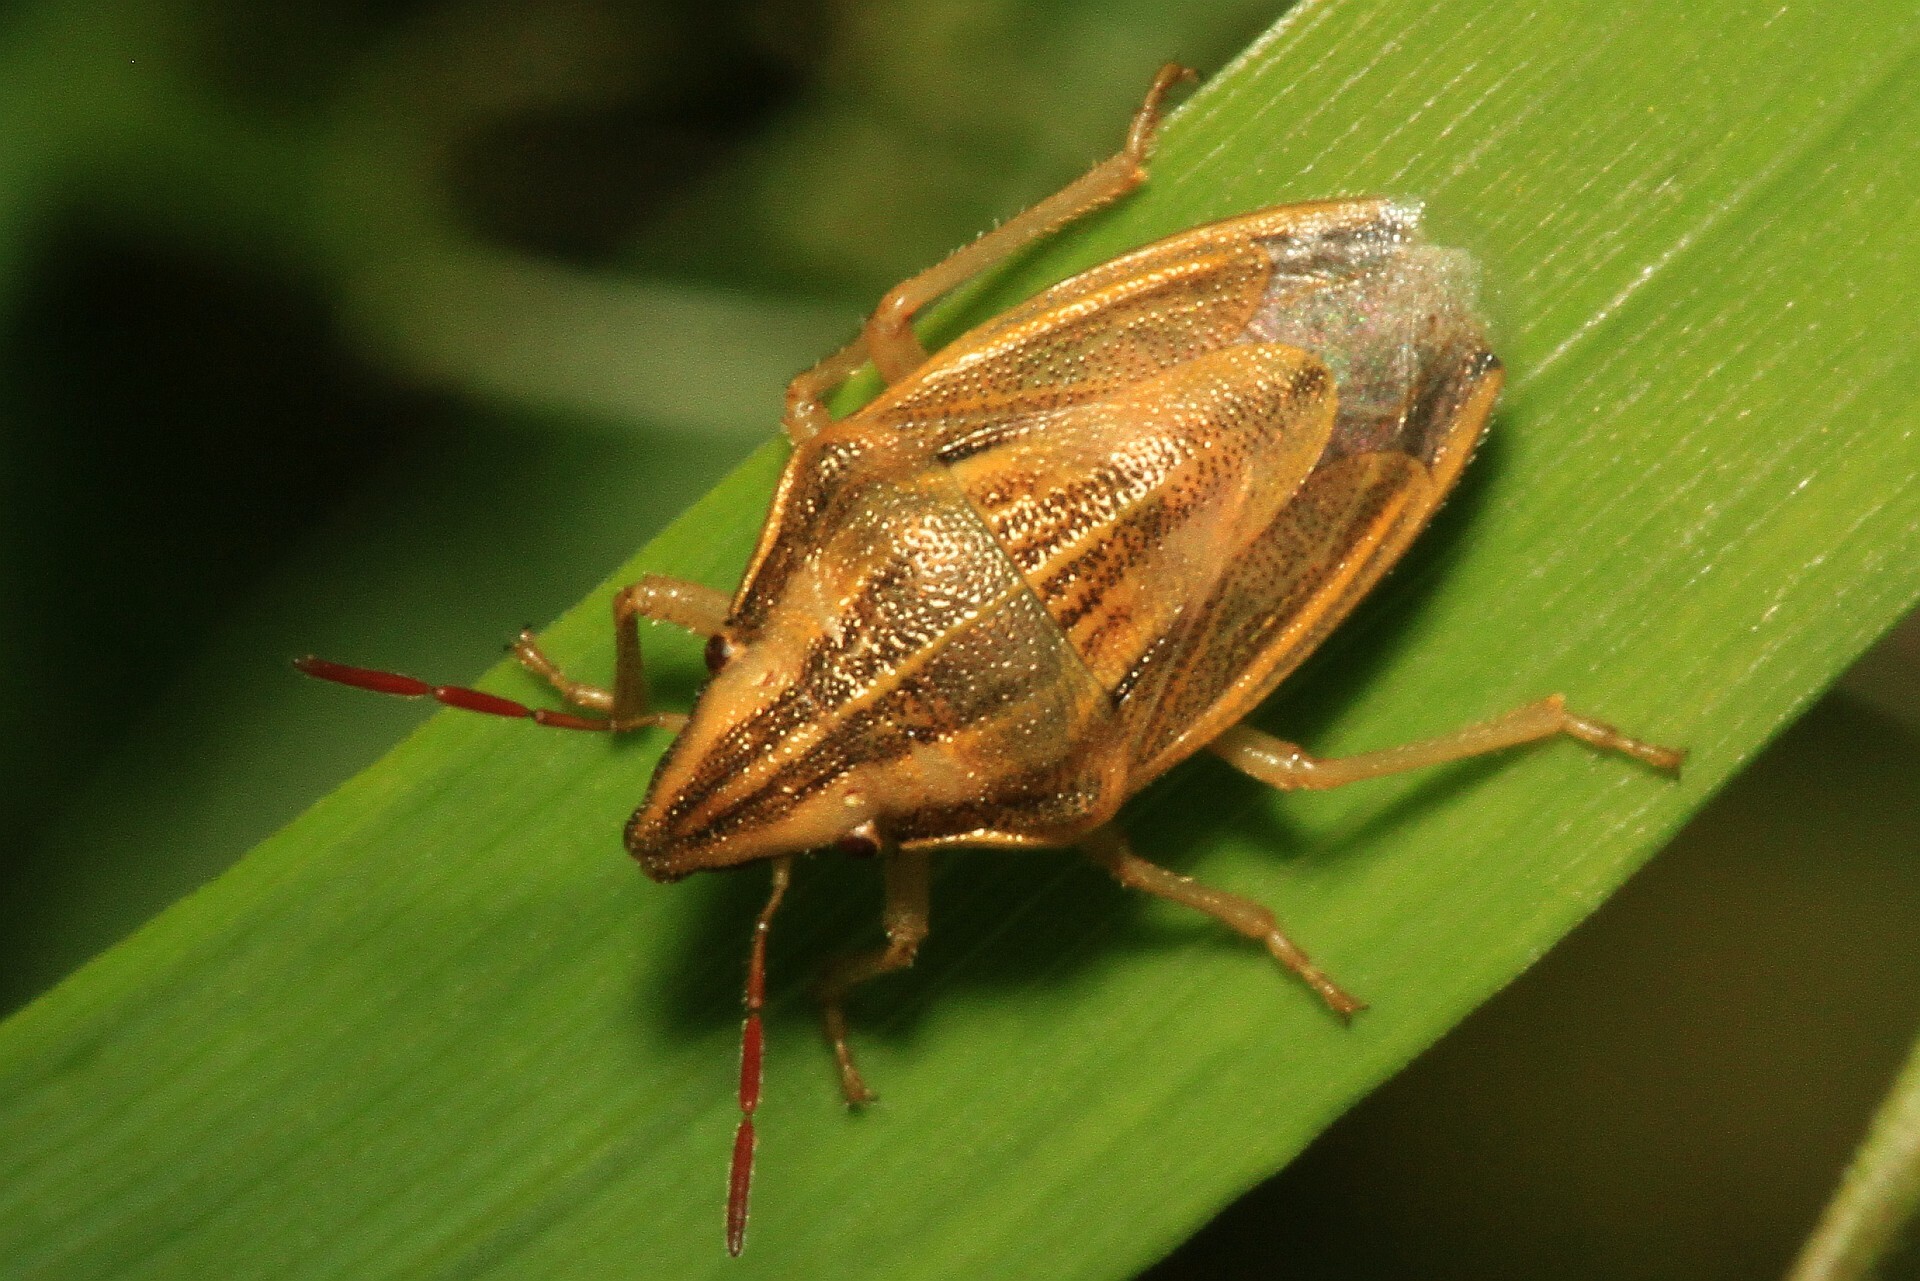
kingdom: Animalia
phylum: Arthropoda
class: Insecta
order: Hemiptera
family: Pentatomidae
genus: Aelia
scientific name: Aelia acuminata
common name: Bishop's mitre
